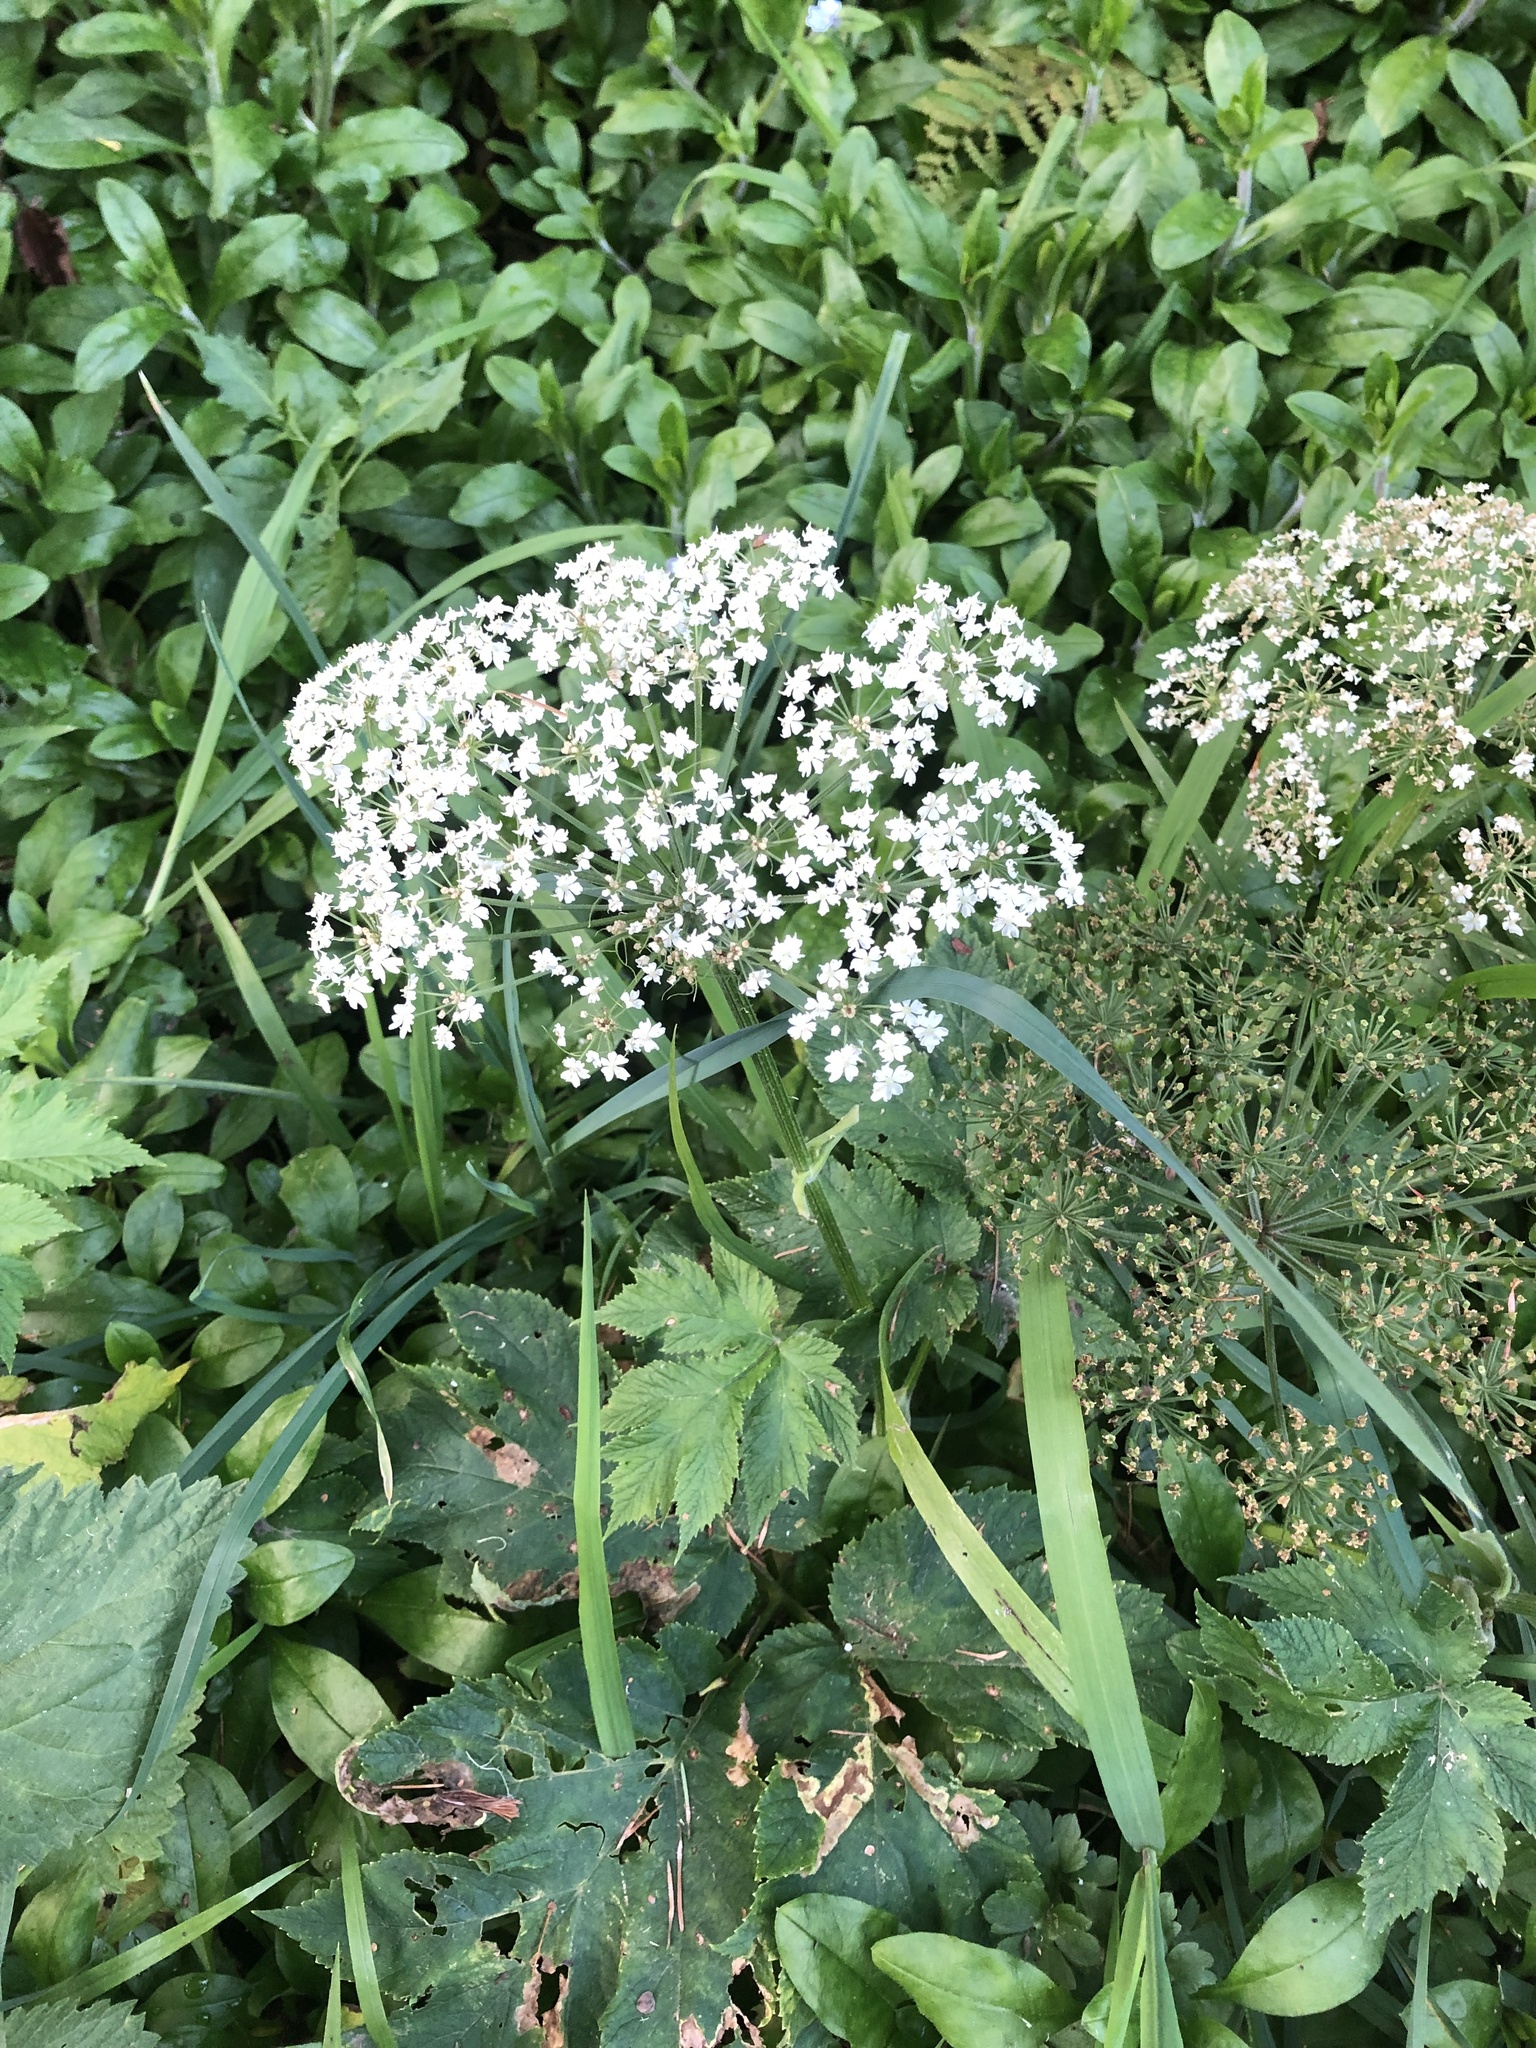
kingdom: Plantae
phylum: Tracheophyta
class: Magnoliopsida
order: Apiales
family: Apiaceae
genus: Heracleum
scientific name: Heracleum maximum
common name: American cow parsnip
